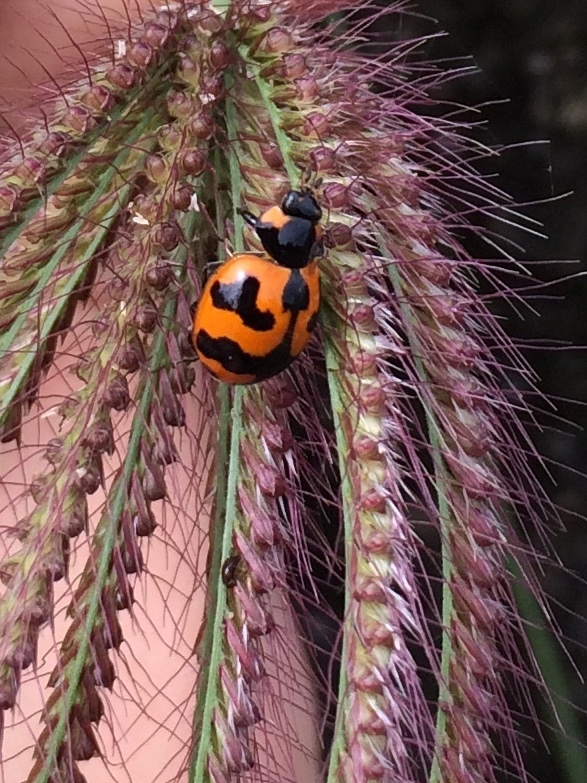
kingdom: Animalia
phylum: Arthropoda
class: Insecta
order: Coleoptera
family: Coccinellidae
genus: Coccinella
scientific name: Coccinella transversalis
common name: Transverse lady beetle
